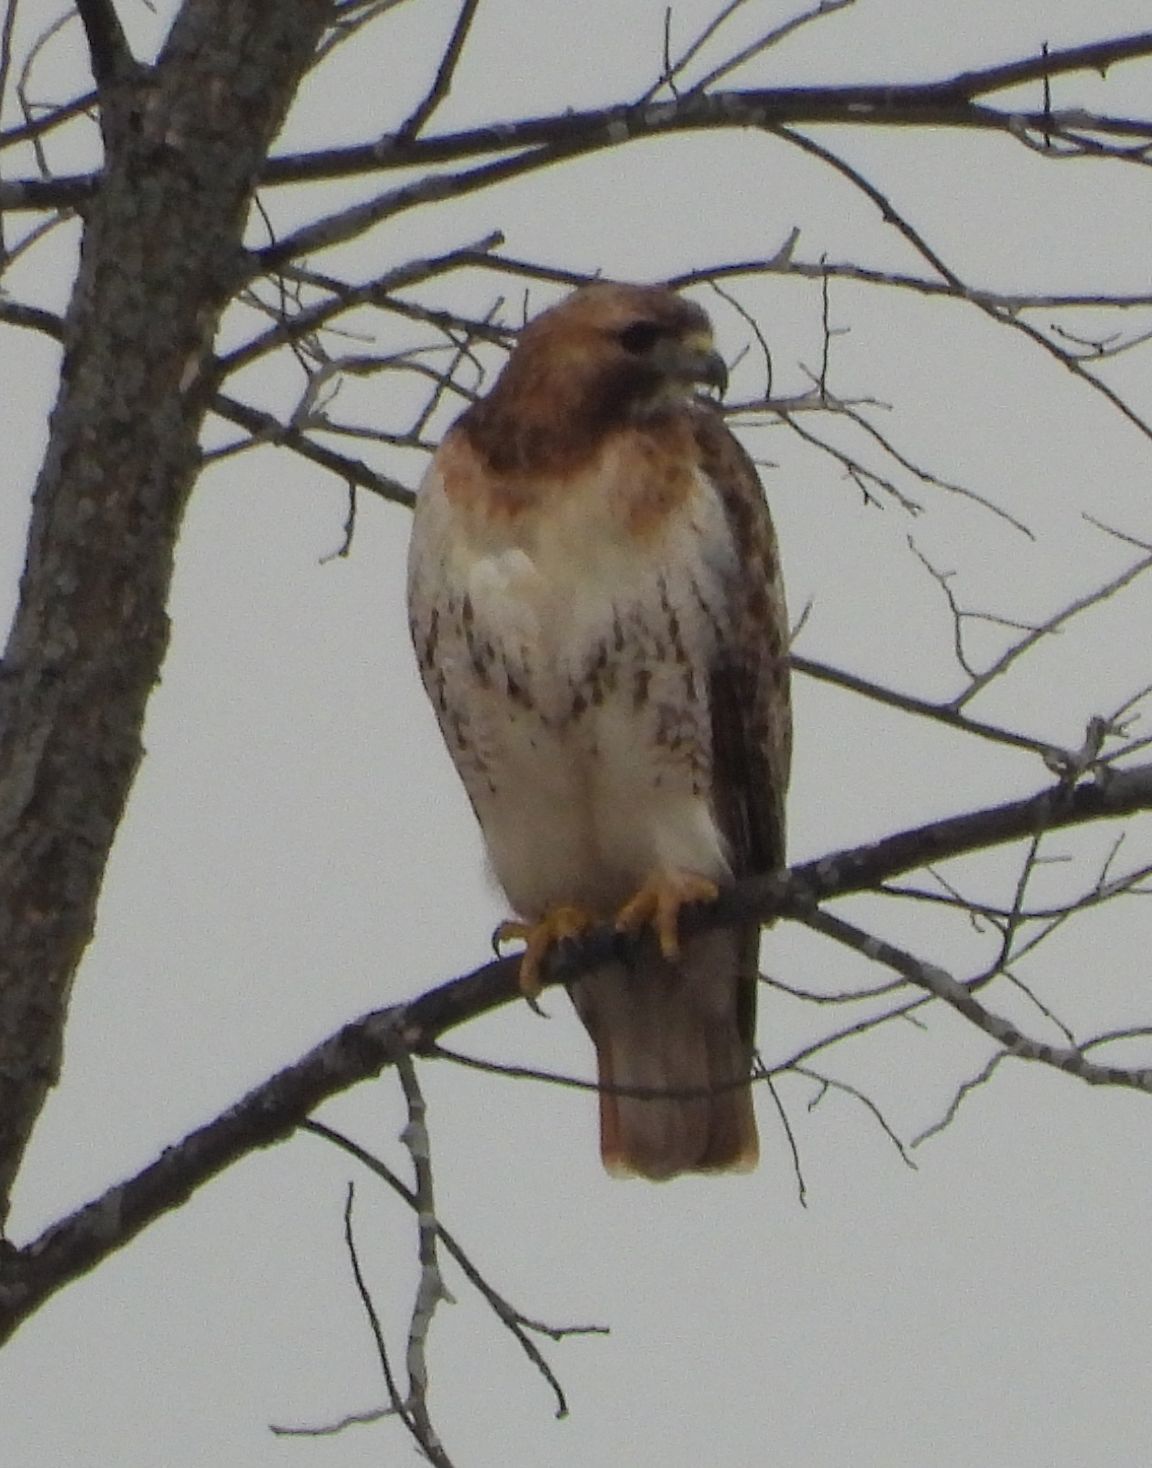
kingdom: Animalia
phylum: Chordata
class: Aves
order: Accipitriformes
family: Accipitridae
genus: Buteo
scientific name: Buteo jamaicensis
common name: Red-tailed hawk
